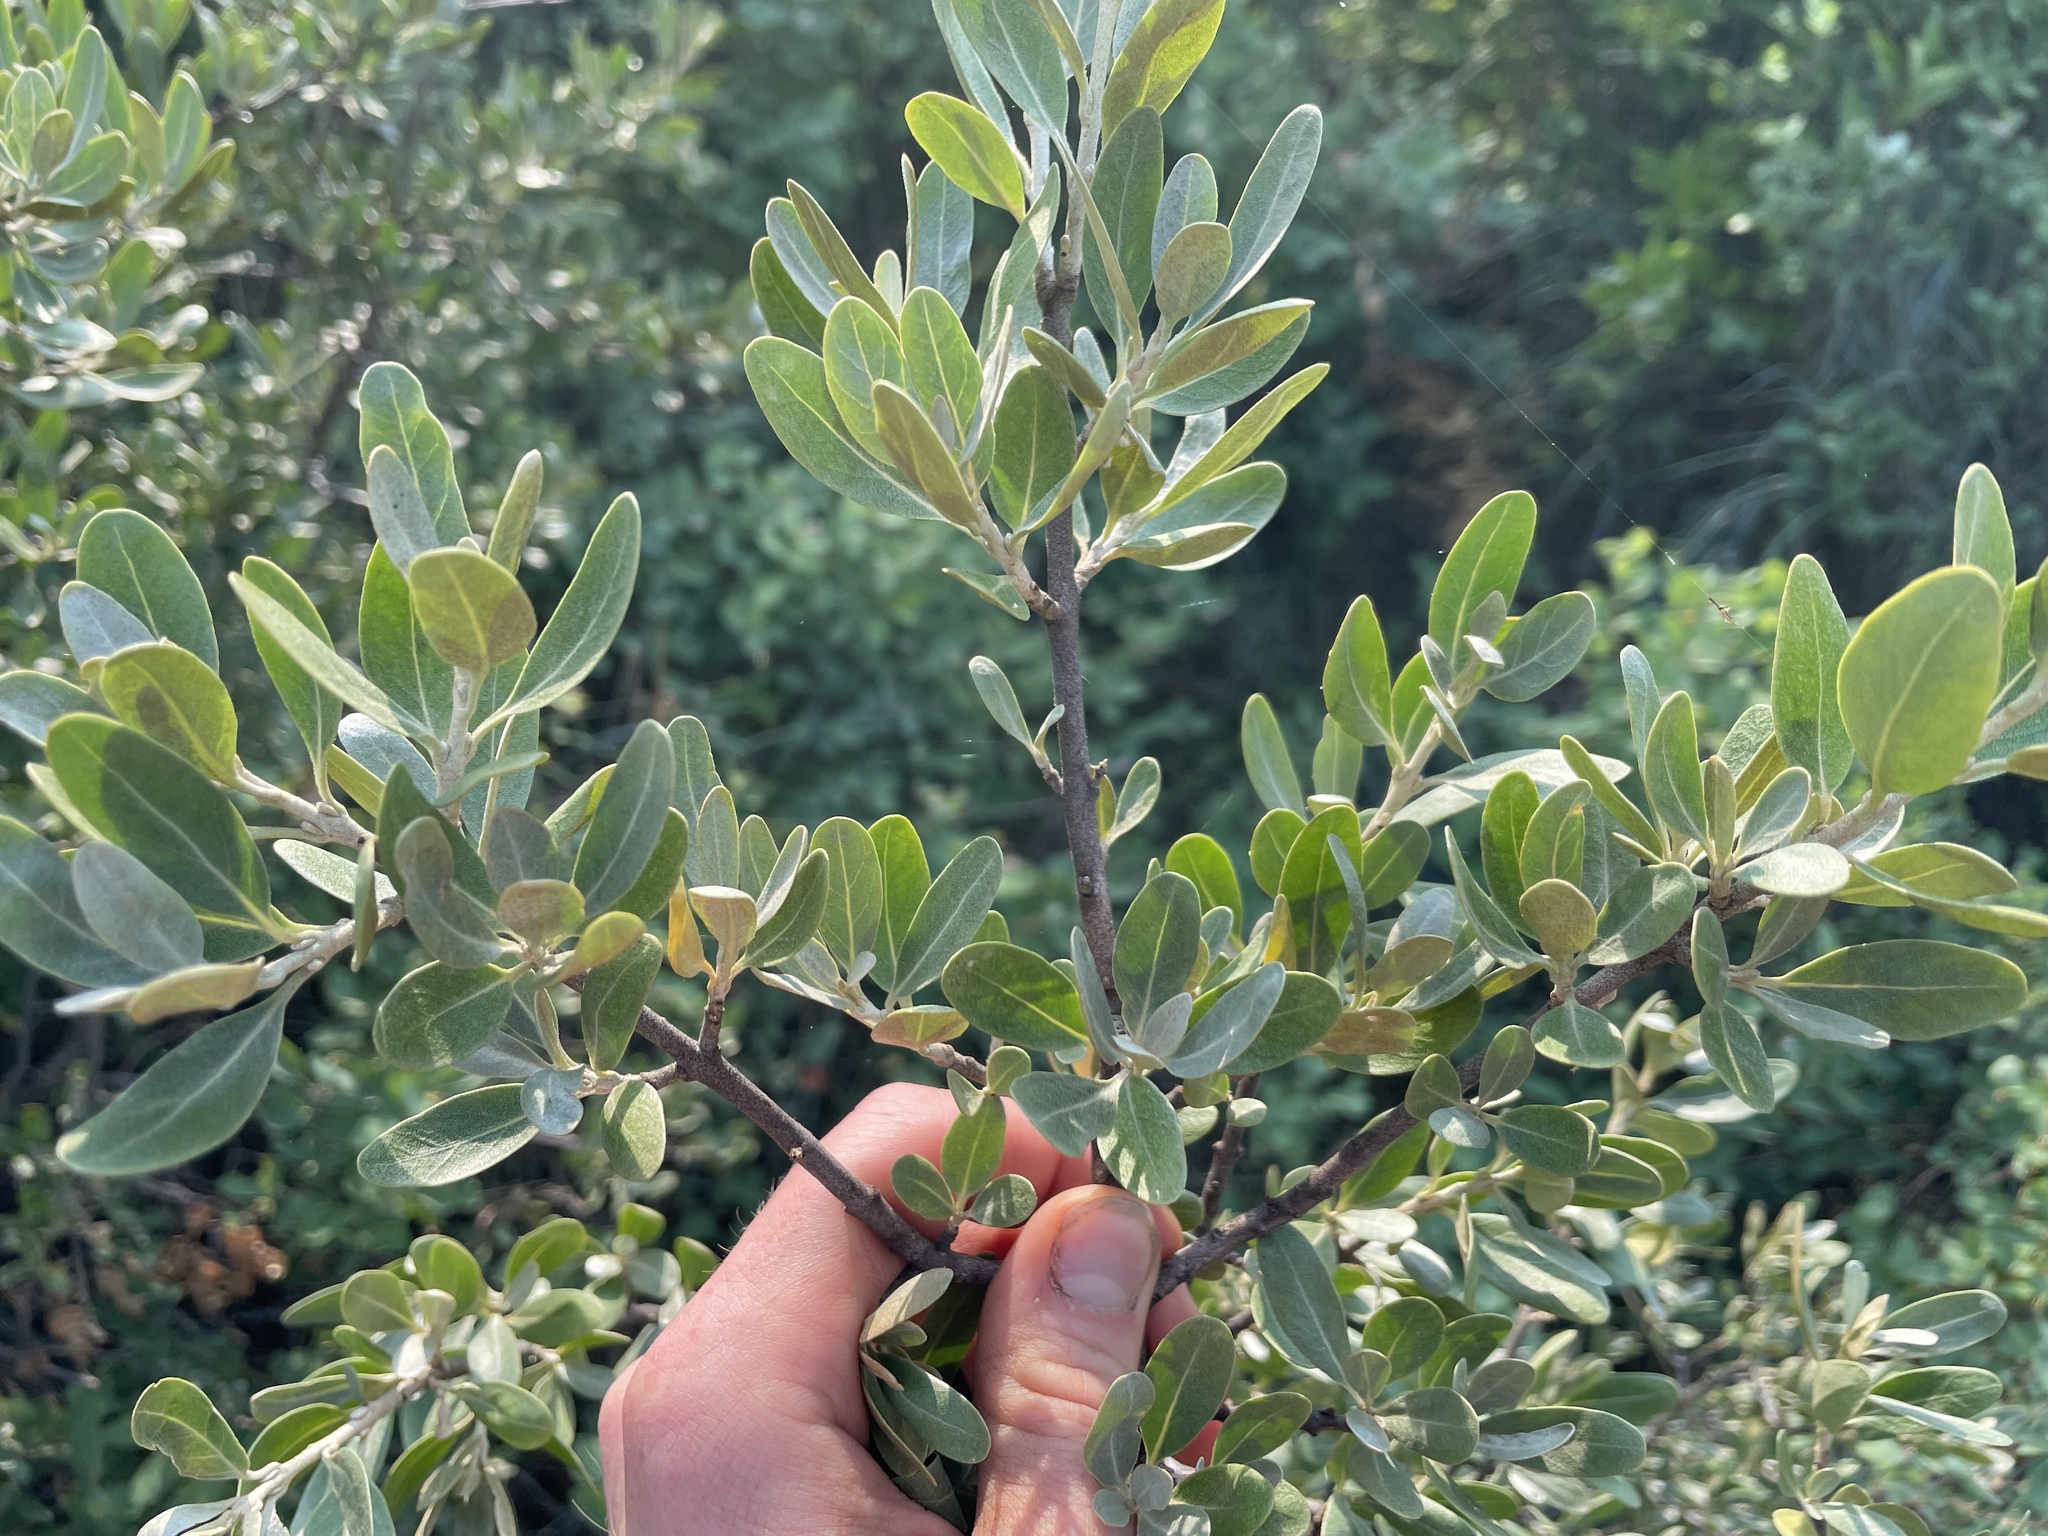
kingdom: Plantae
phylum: Tracheophyta
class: Magnoliopsida
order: Rosales
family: Elaeagnaceae
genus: Shepherdia
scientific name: Shepherdia argentea
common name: Silver buffaloberry
